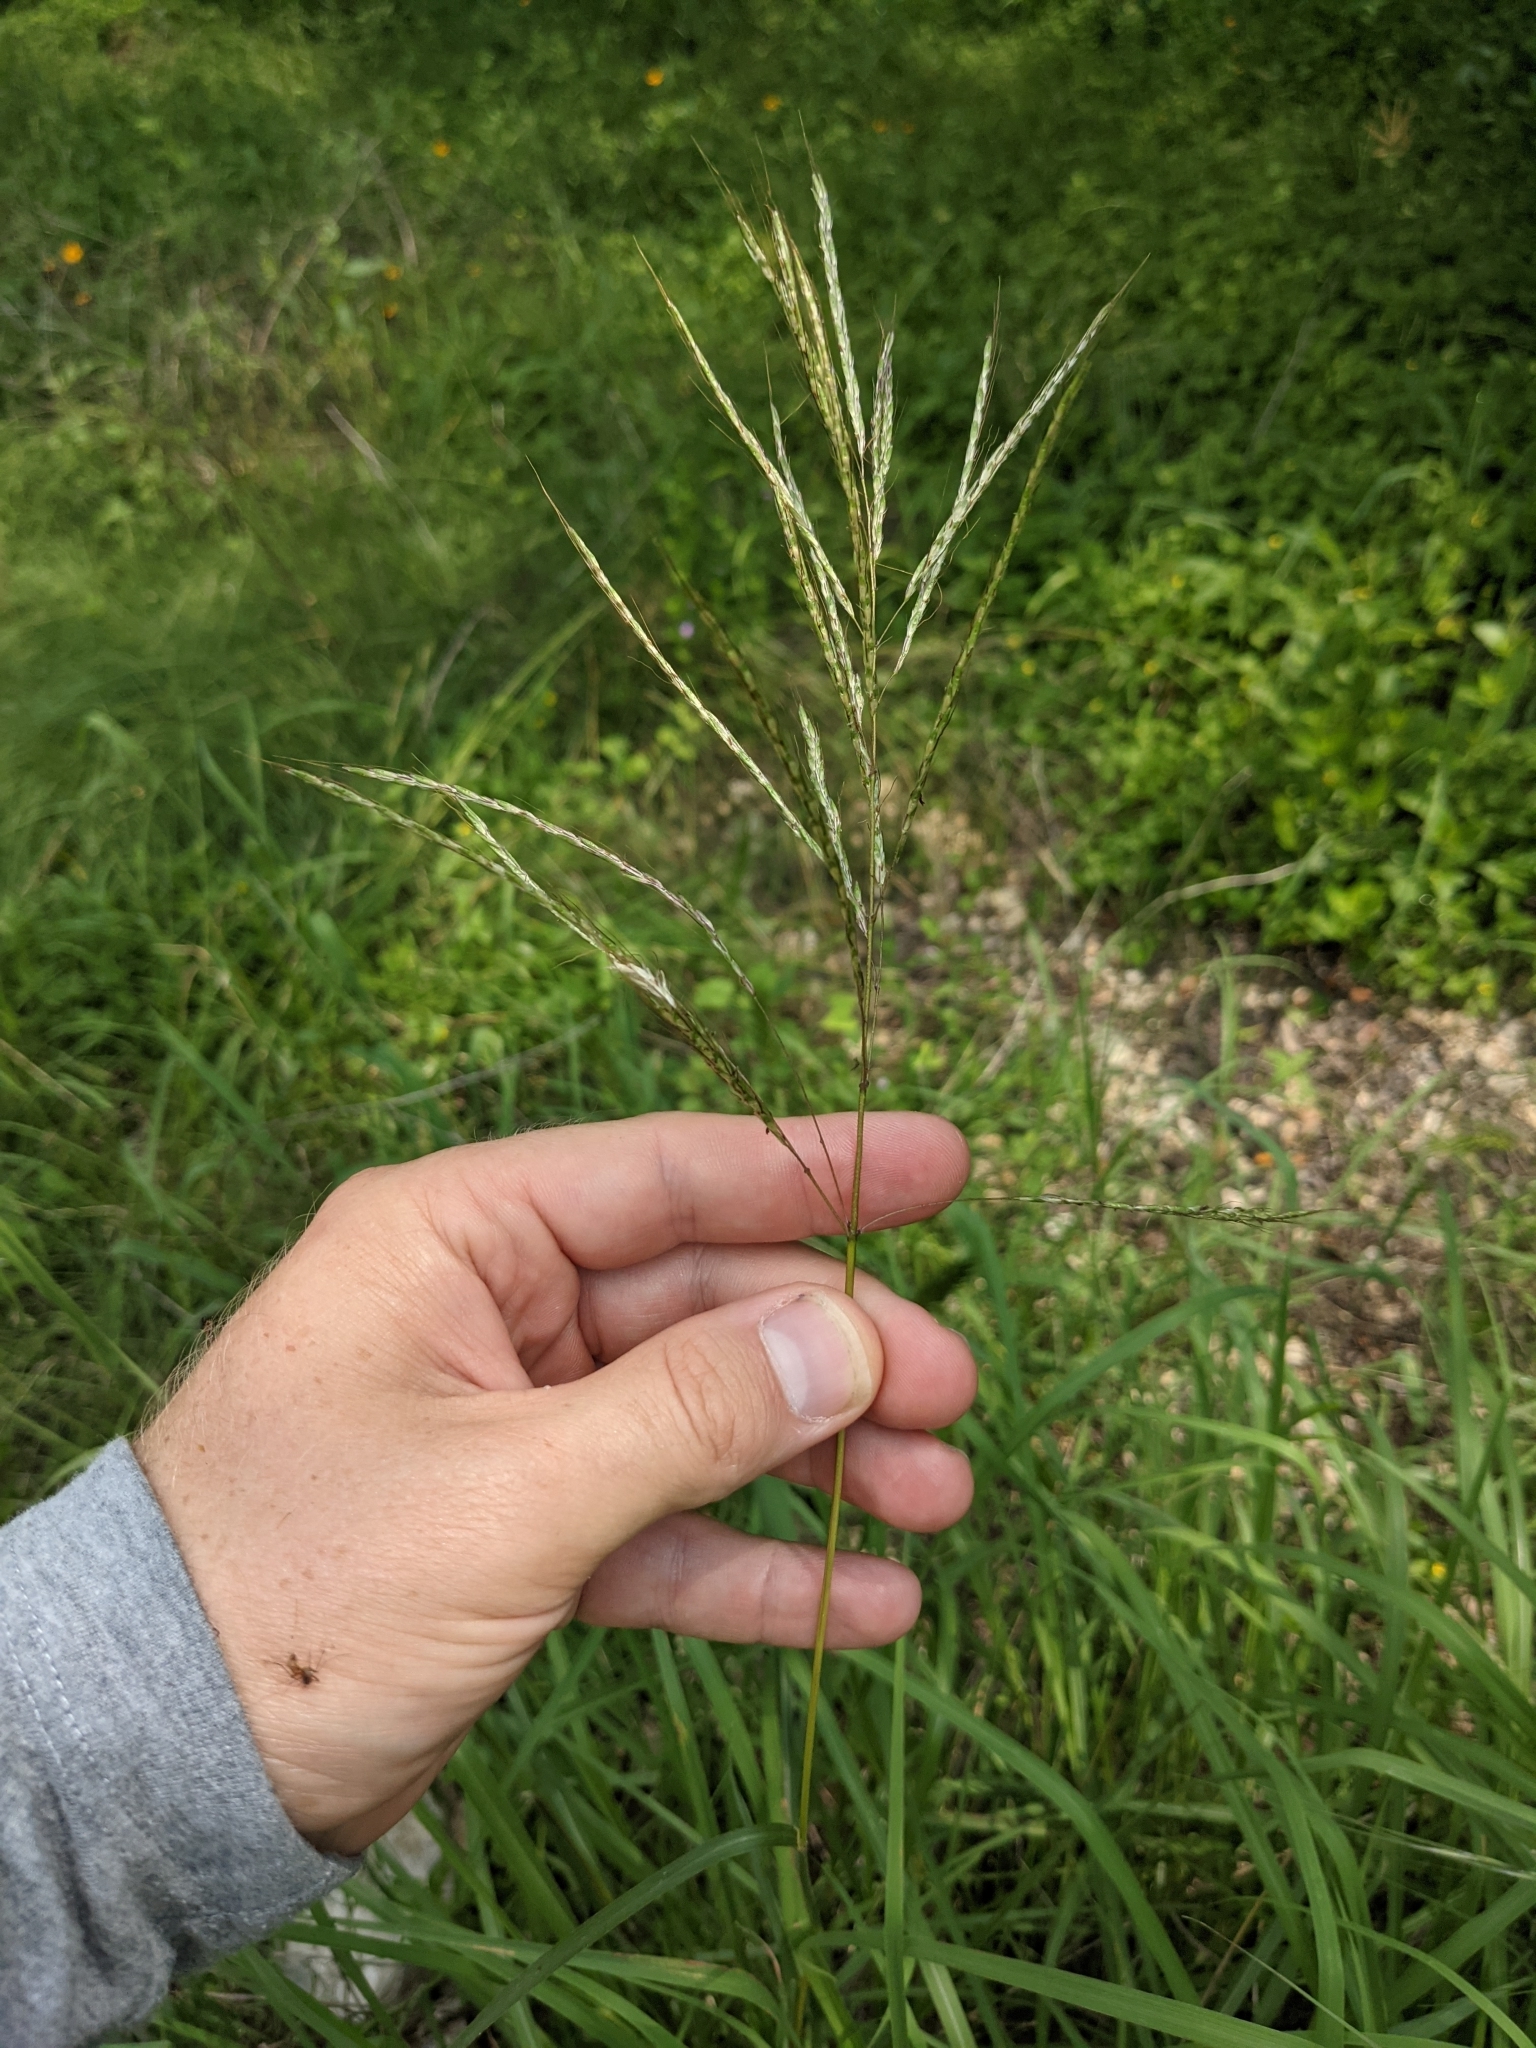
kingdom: Plantae
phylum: Tracheophyta
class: Liliopsida
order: Poales
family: Poaceae
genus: Bothriochloa
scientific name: Bothriochloa bladhii
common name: Caucasian bluestem
